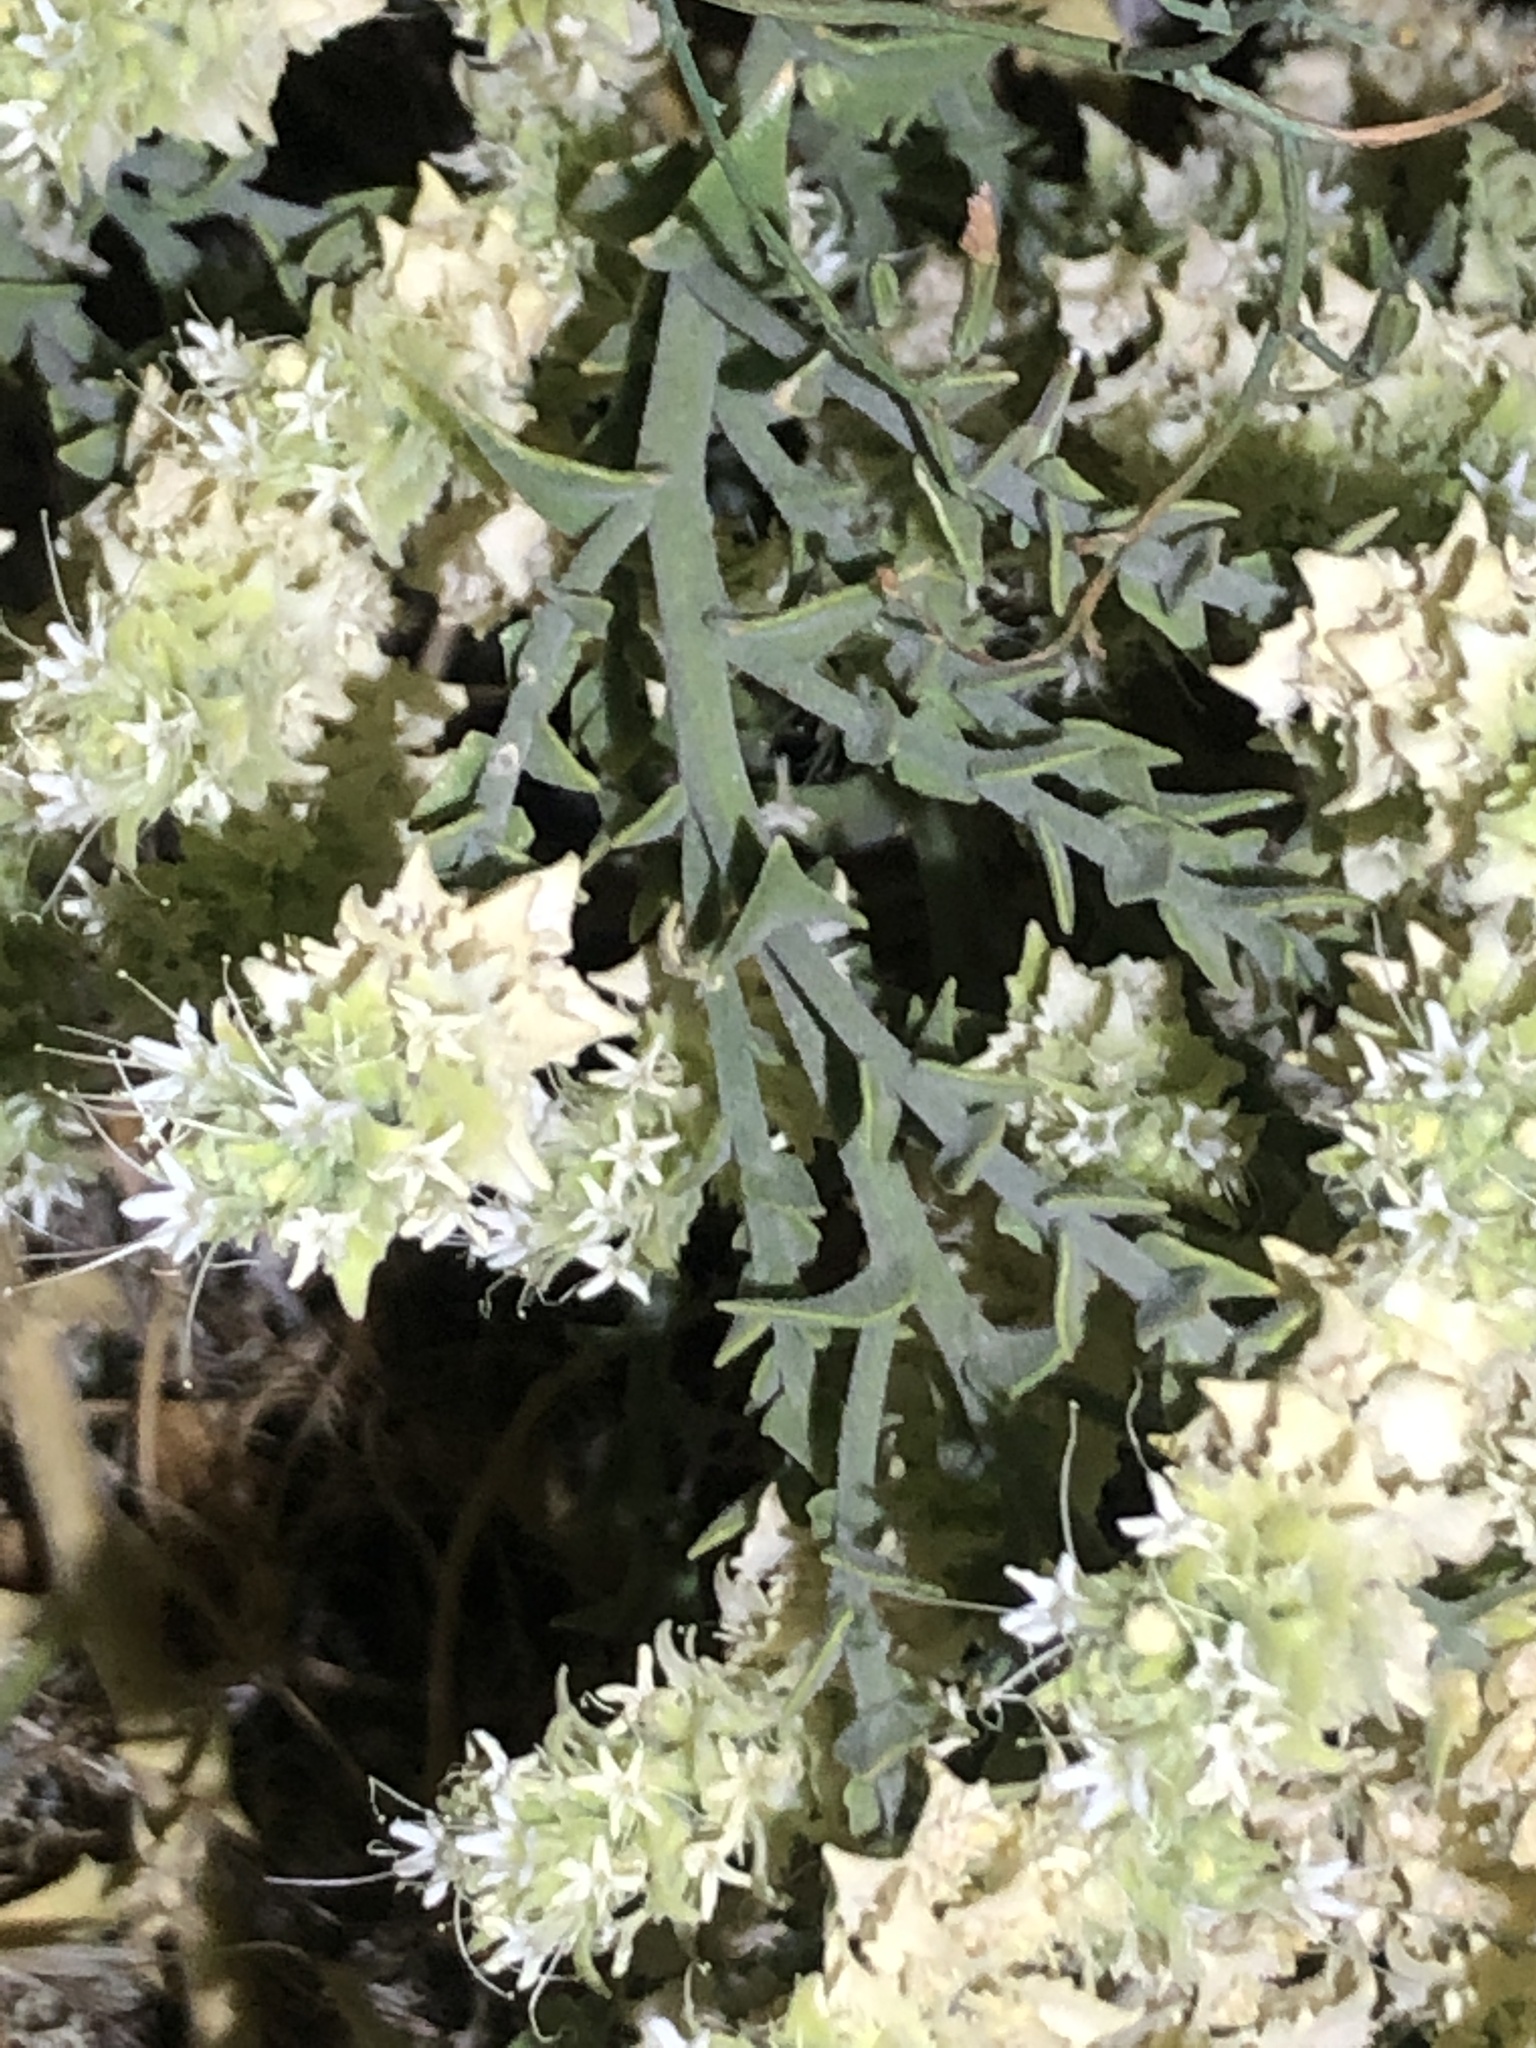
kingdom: Plantae
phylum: Tracheophyta
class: Magnoliopsida
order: Cornales
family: Loasaceae
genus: Petalonyx
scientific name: Petalonyx thurberi
